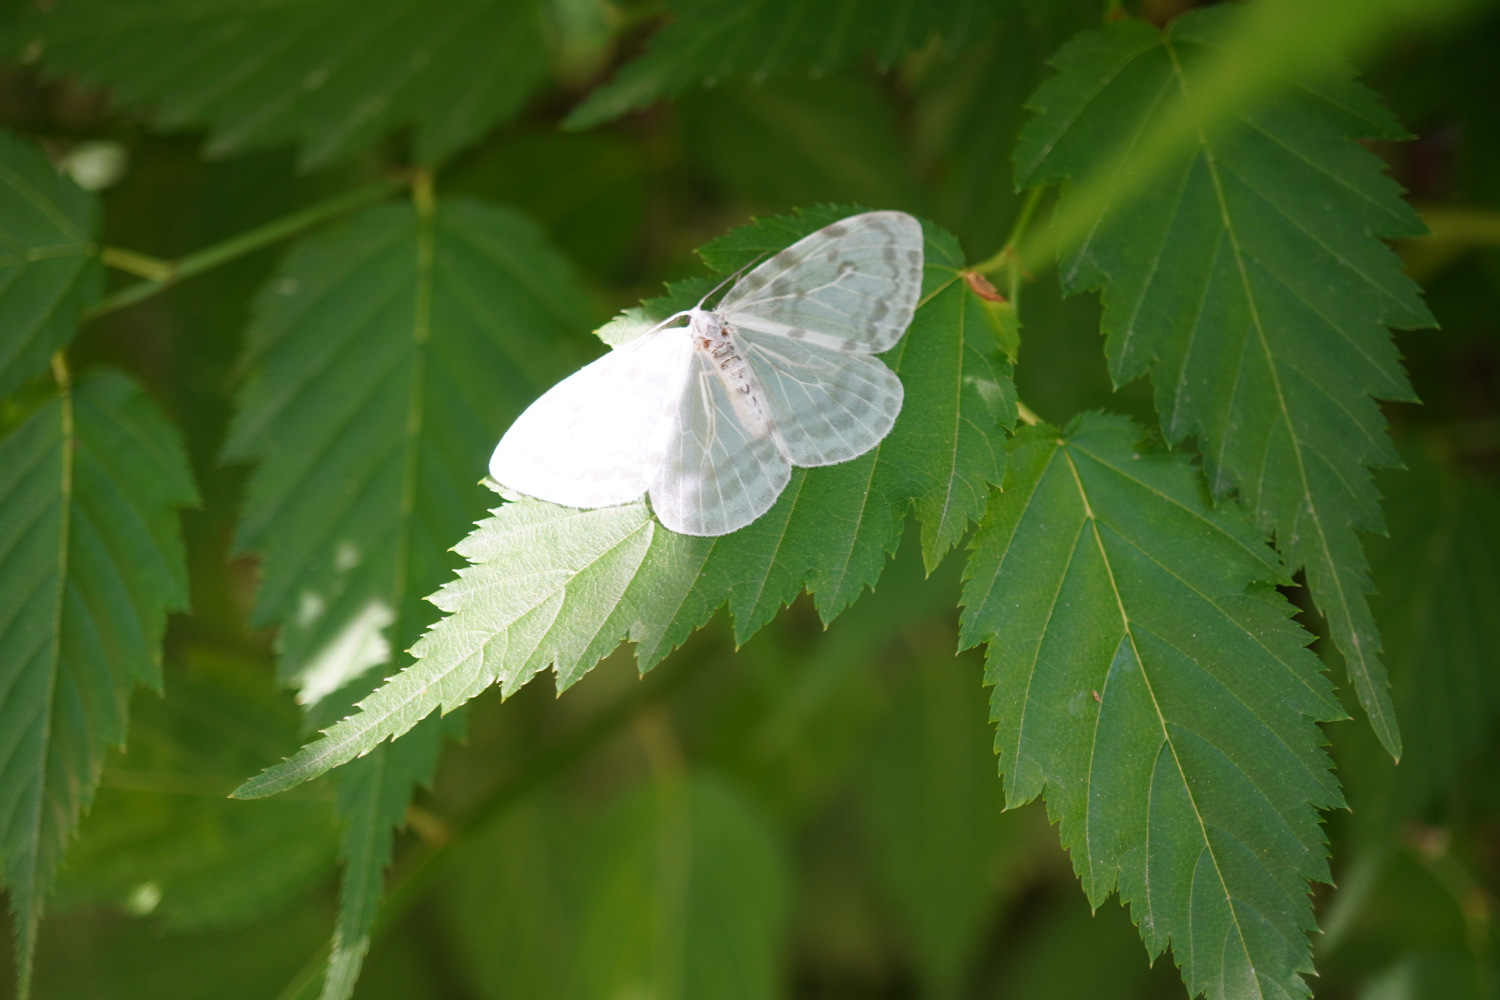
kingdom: Animalia
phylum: Arthropoda
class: Insecta
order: Lepidoptera
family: Drepanidae
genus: Deroca
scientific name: Deroca inconclusa
